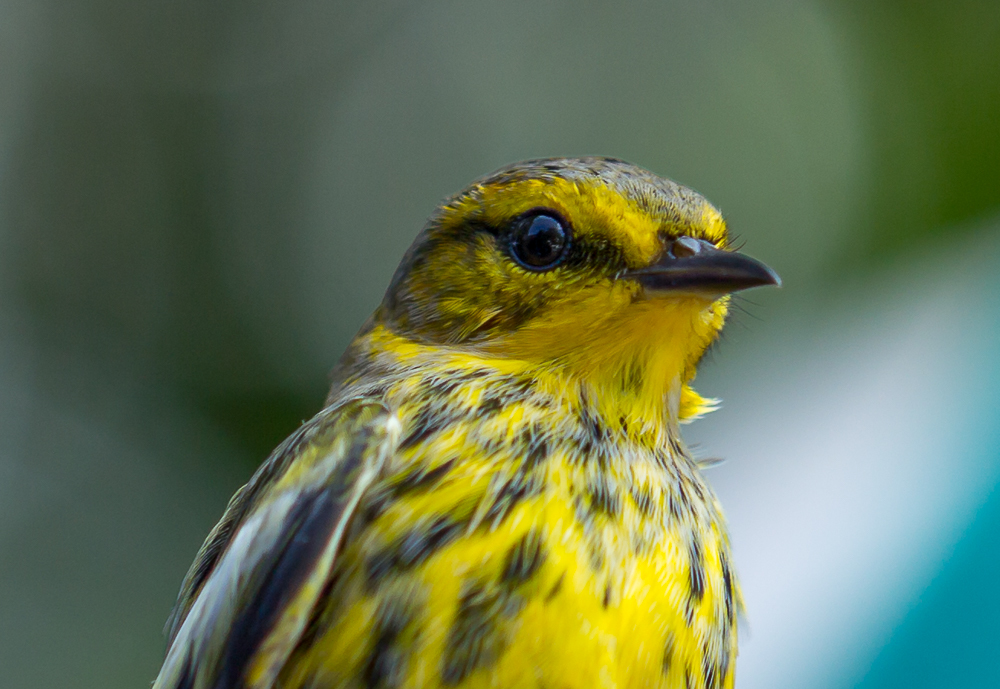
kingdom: Animalia
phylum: Chordata
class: Aves
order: Passeriformes
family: Parulidae
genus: Setophaga
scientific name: Setophaga tigrina
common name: Cape may warbler
